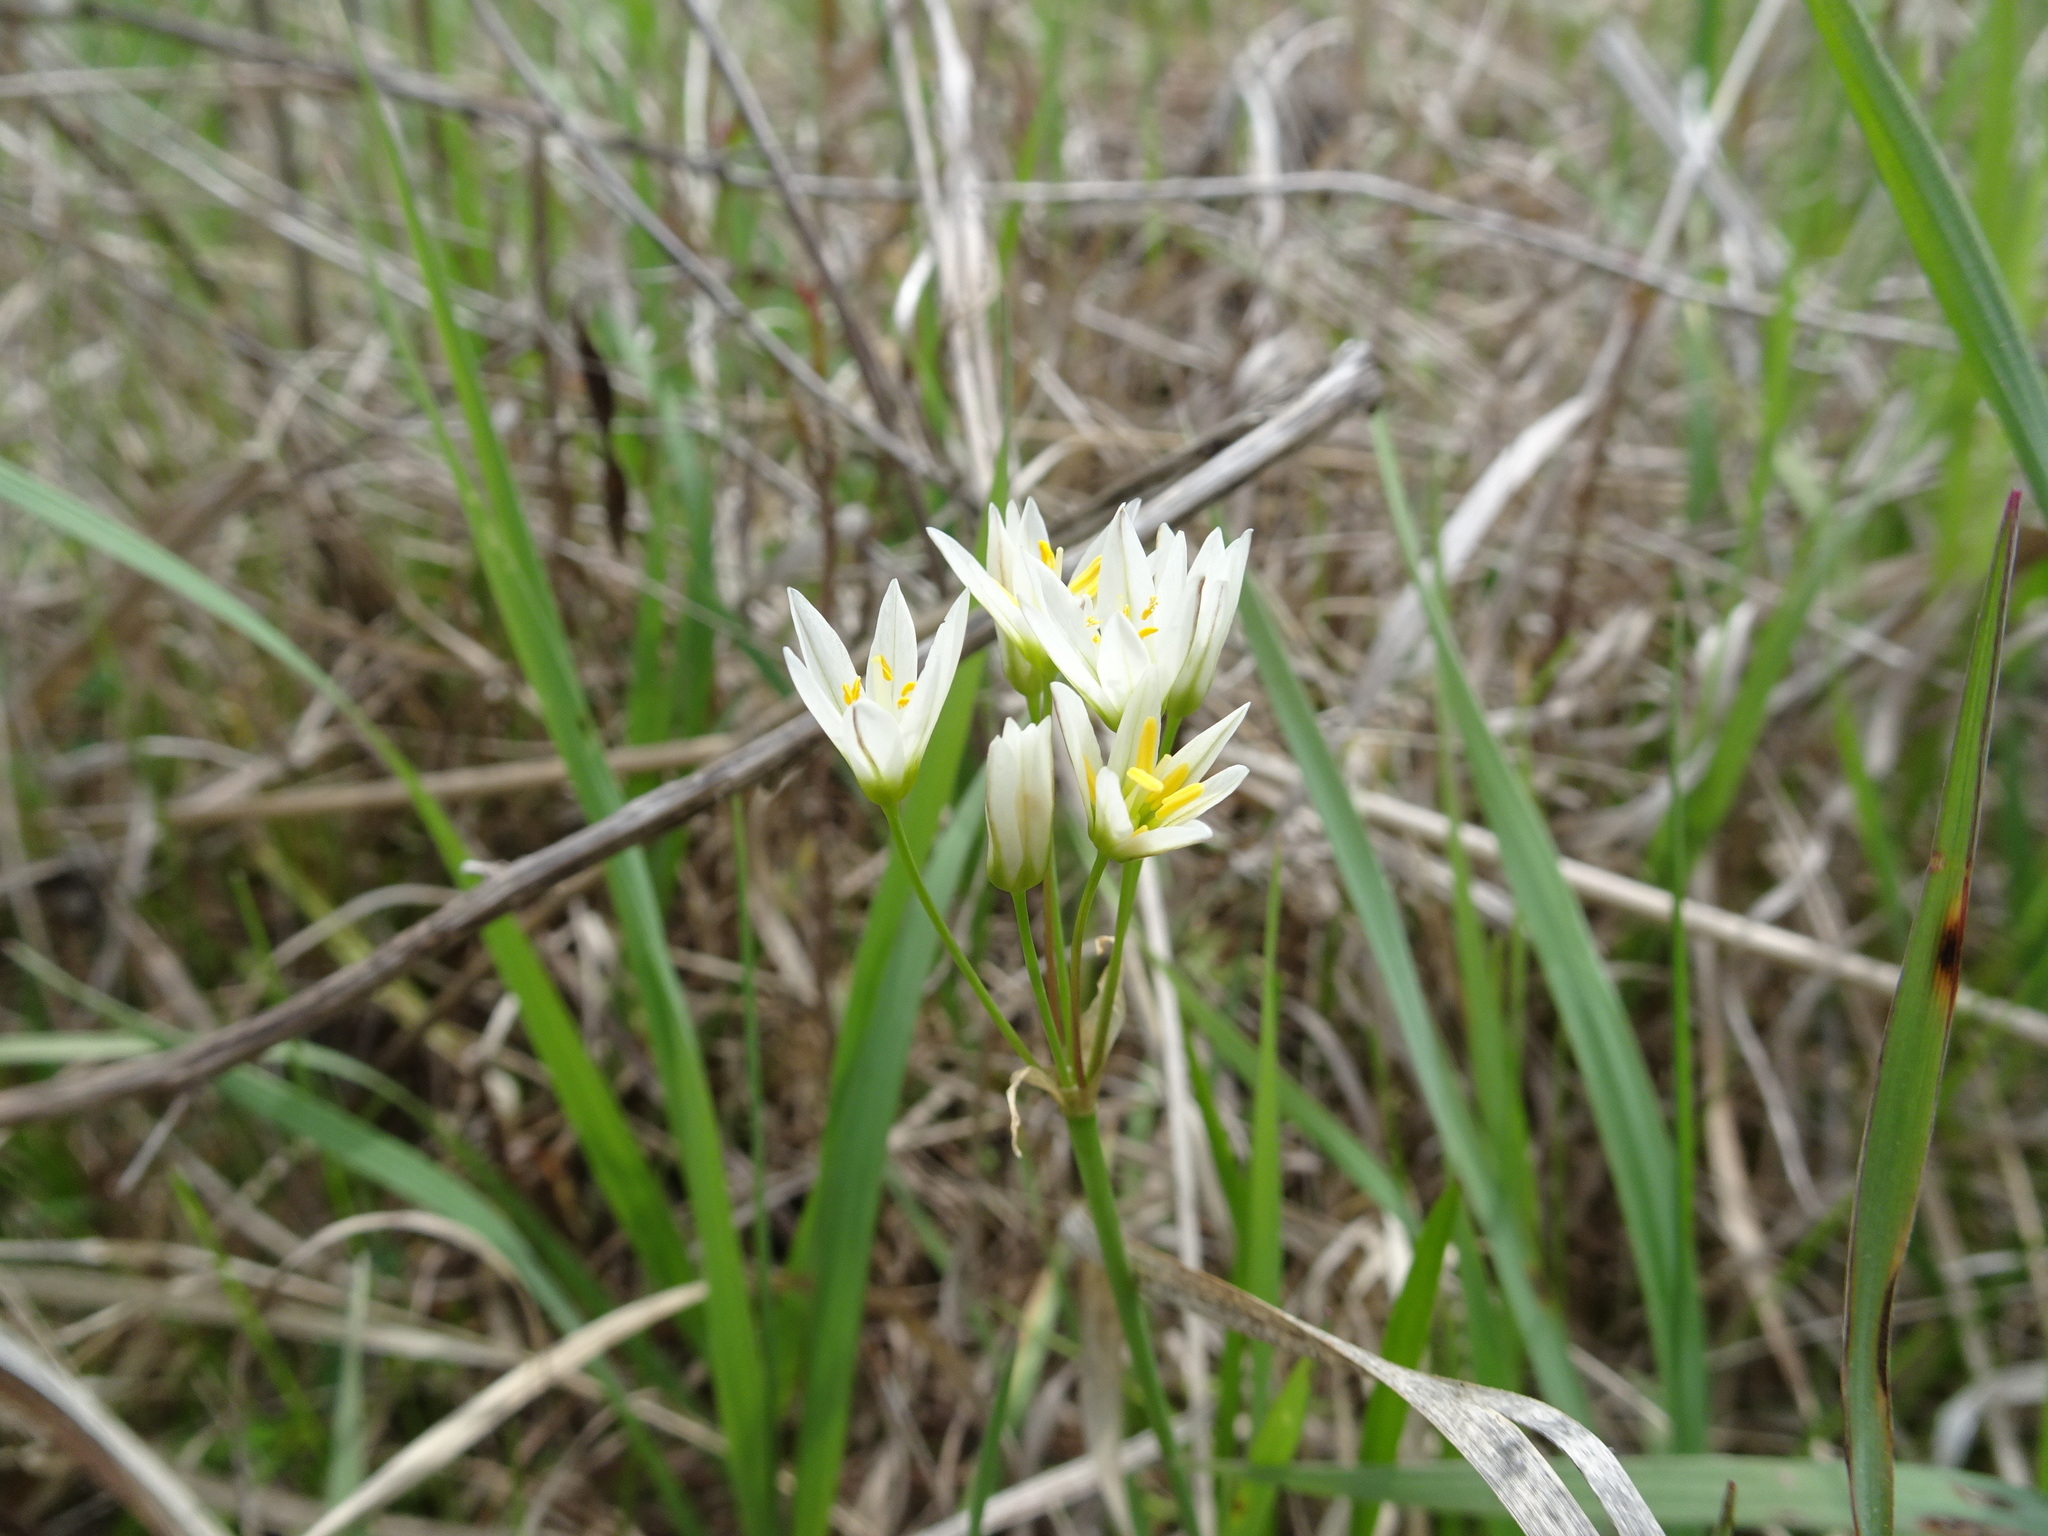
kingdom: Plantae
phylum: Tracheophyta
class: Liliopsida
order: Asparagales
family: Amaryllidaceae
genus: Nothoscordum
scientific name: Nothoscordum bivalve
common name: Crow-poison
